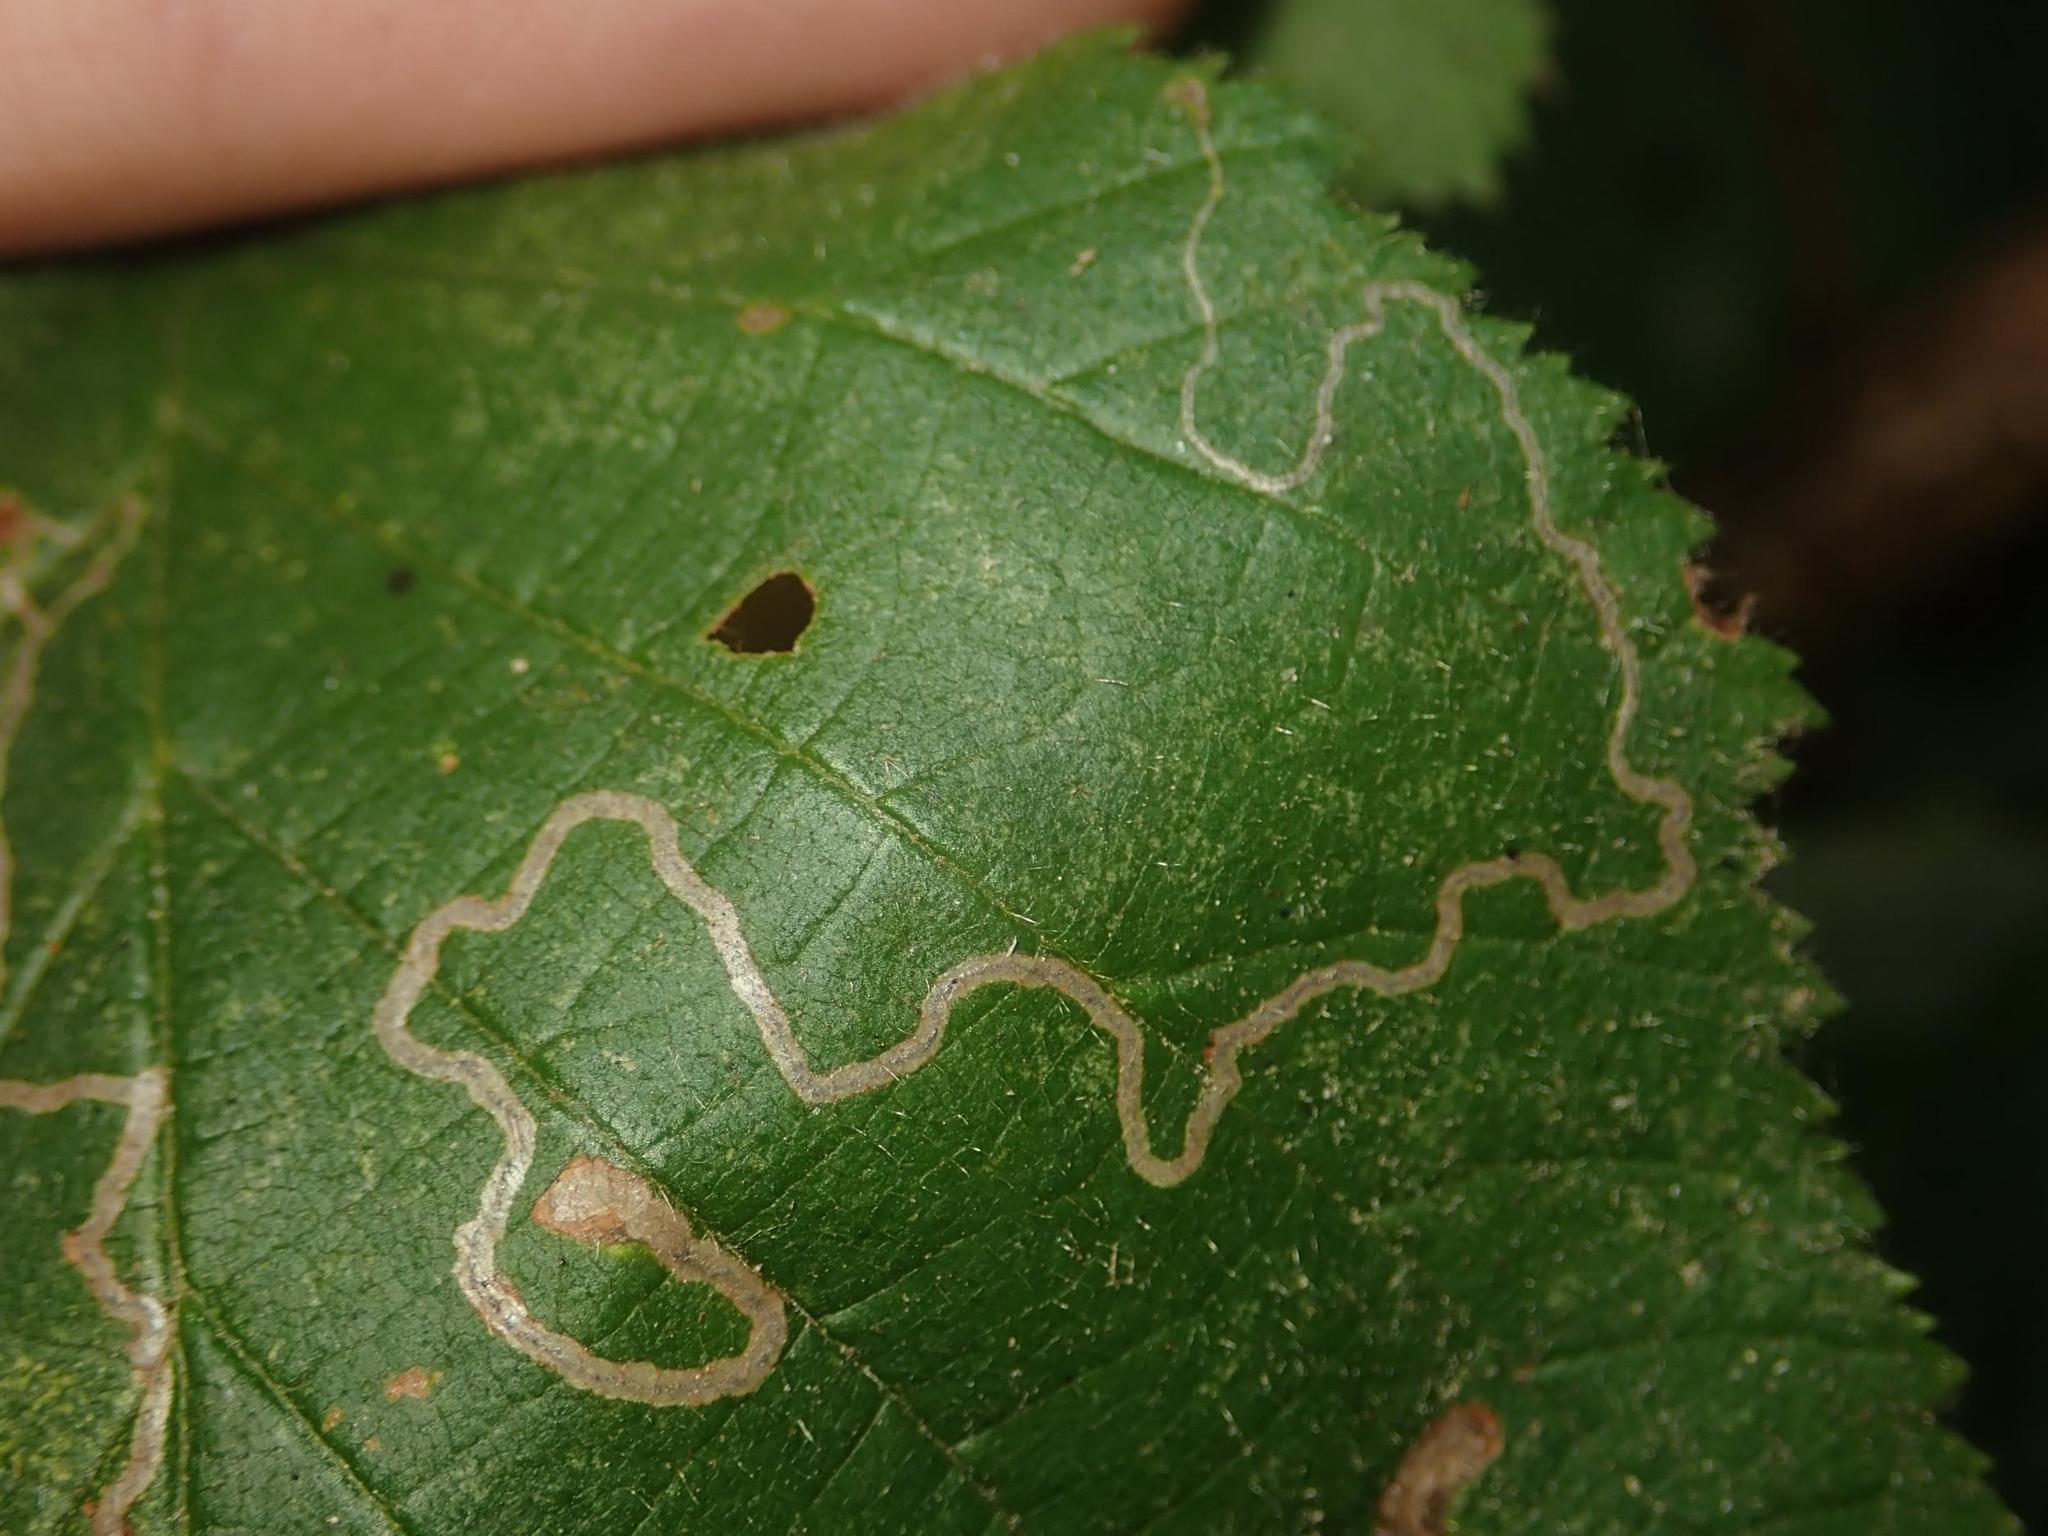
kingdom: Animalia
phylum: Arthropoda
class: Insecta
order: Lepidoptera
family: Nepticulidae
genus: Stigmella
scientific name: Stigmella microtheriella
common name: Nut-tree pigmy
